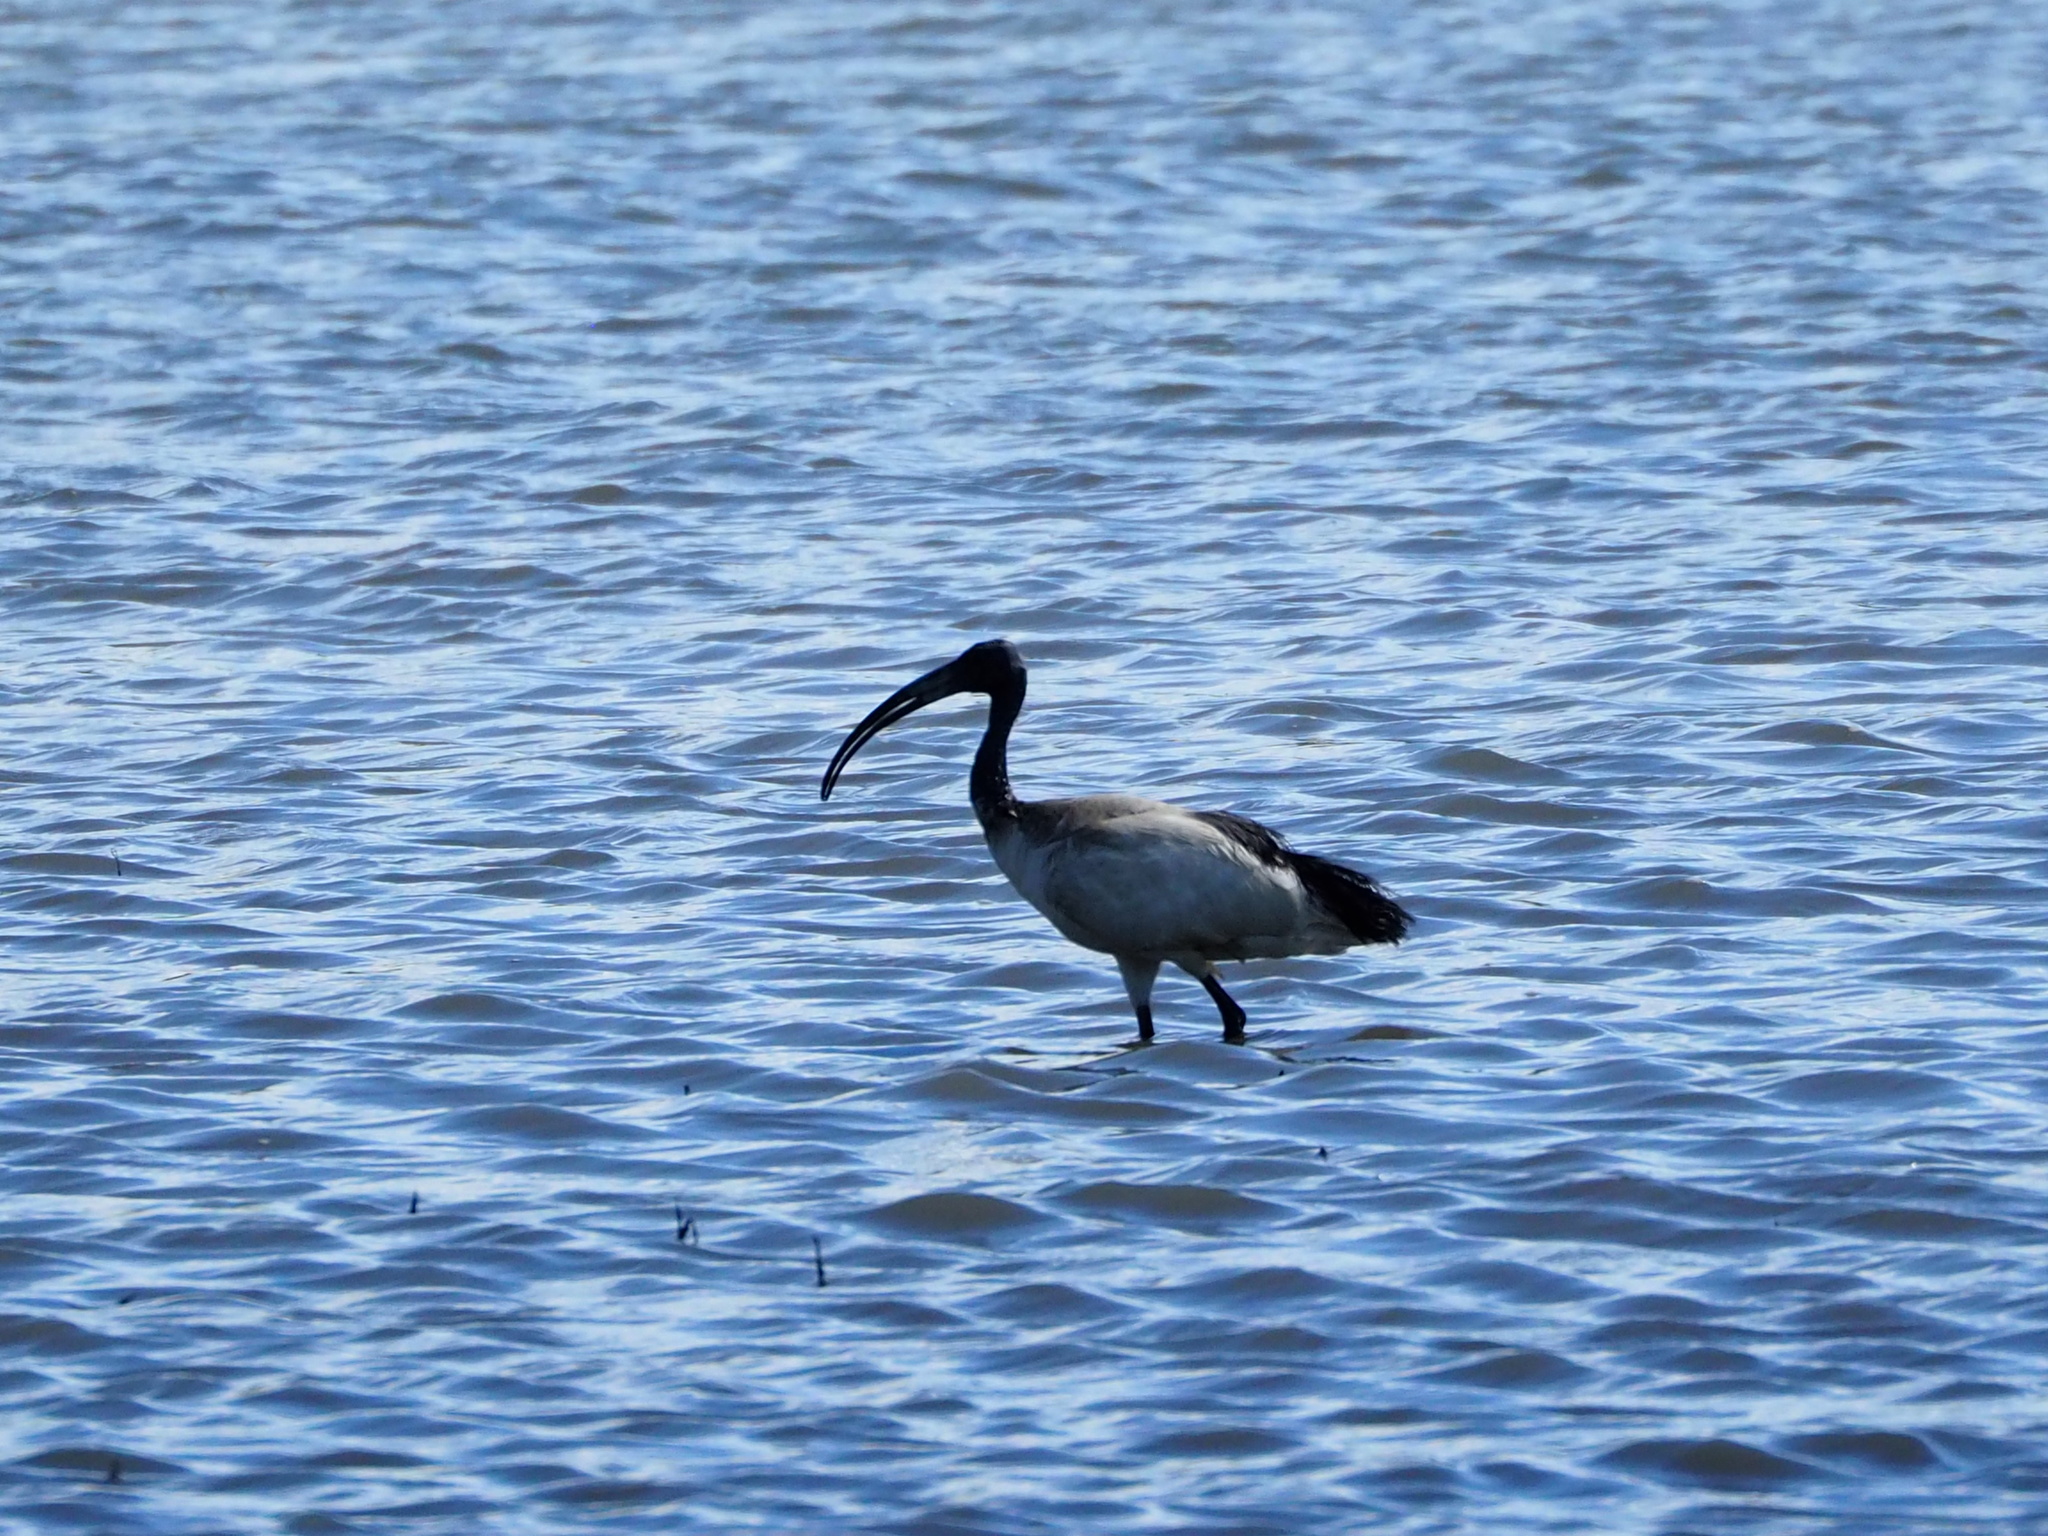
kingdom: Animalia
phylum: Chordata
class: Aves
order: Pelecaniformes
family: Threskiornithidae
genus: Threskiornis
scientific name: Threskiornis aethiopicus
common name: Sacred ibis
